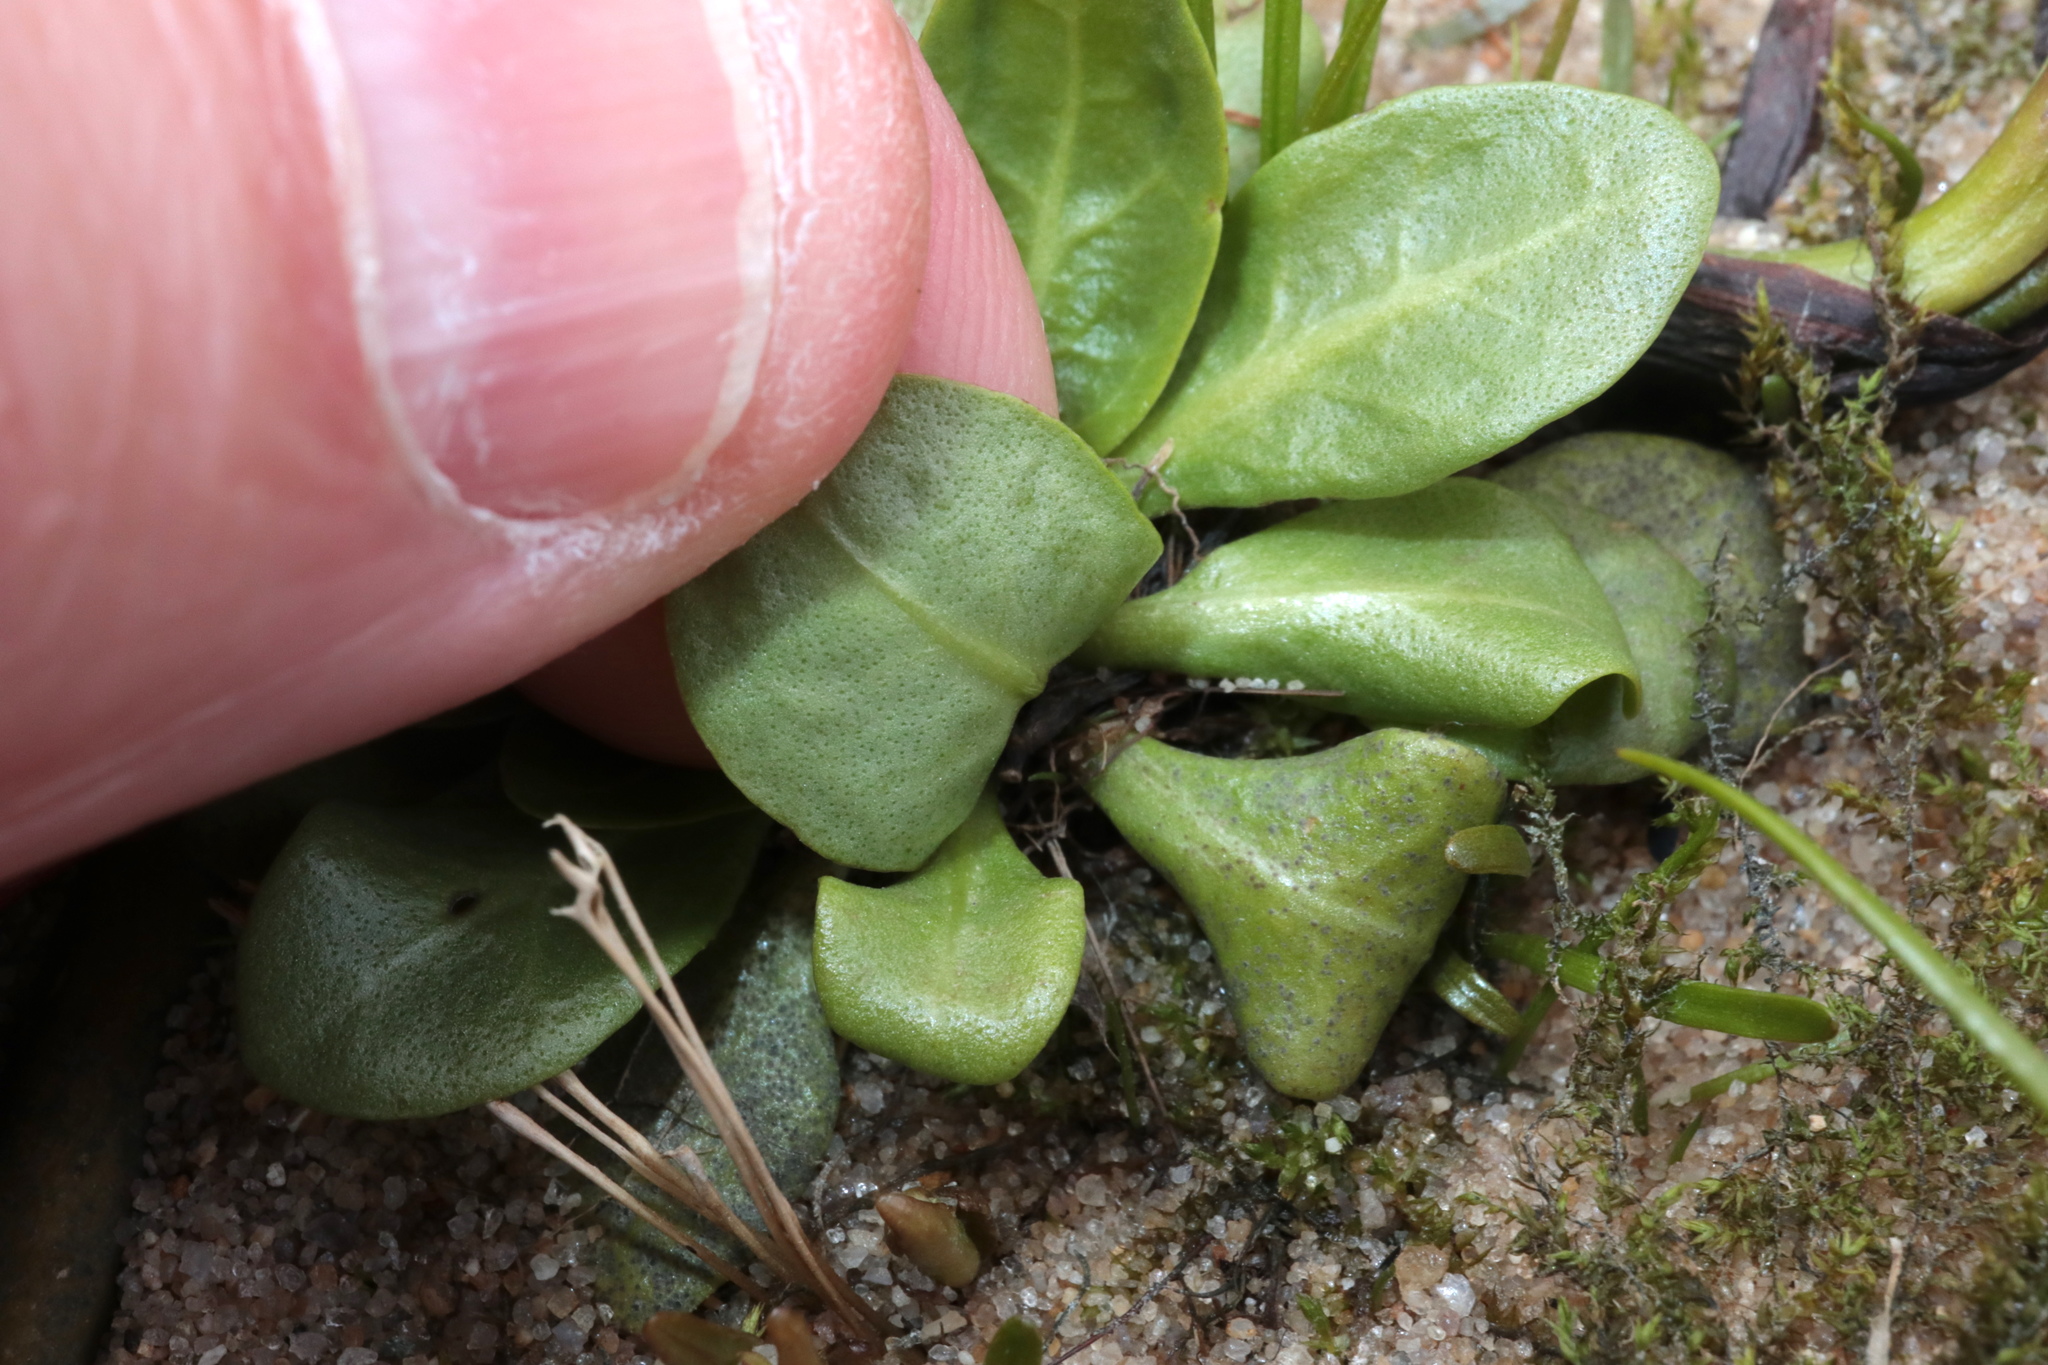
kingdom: Plantae
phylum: Tracheophyta
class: Magnoliopsida
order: Ericales
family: Primulaceae
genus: Samolus
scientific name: Samolus parviflorus
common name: False water pimpernel
